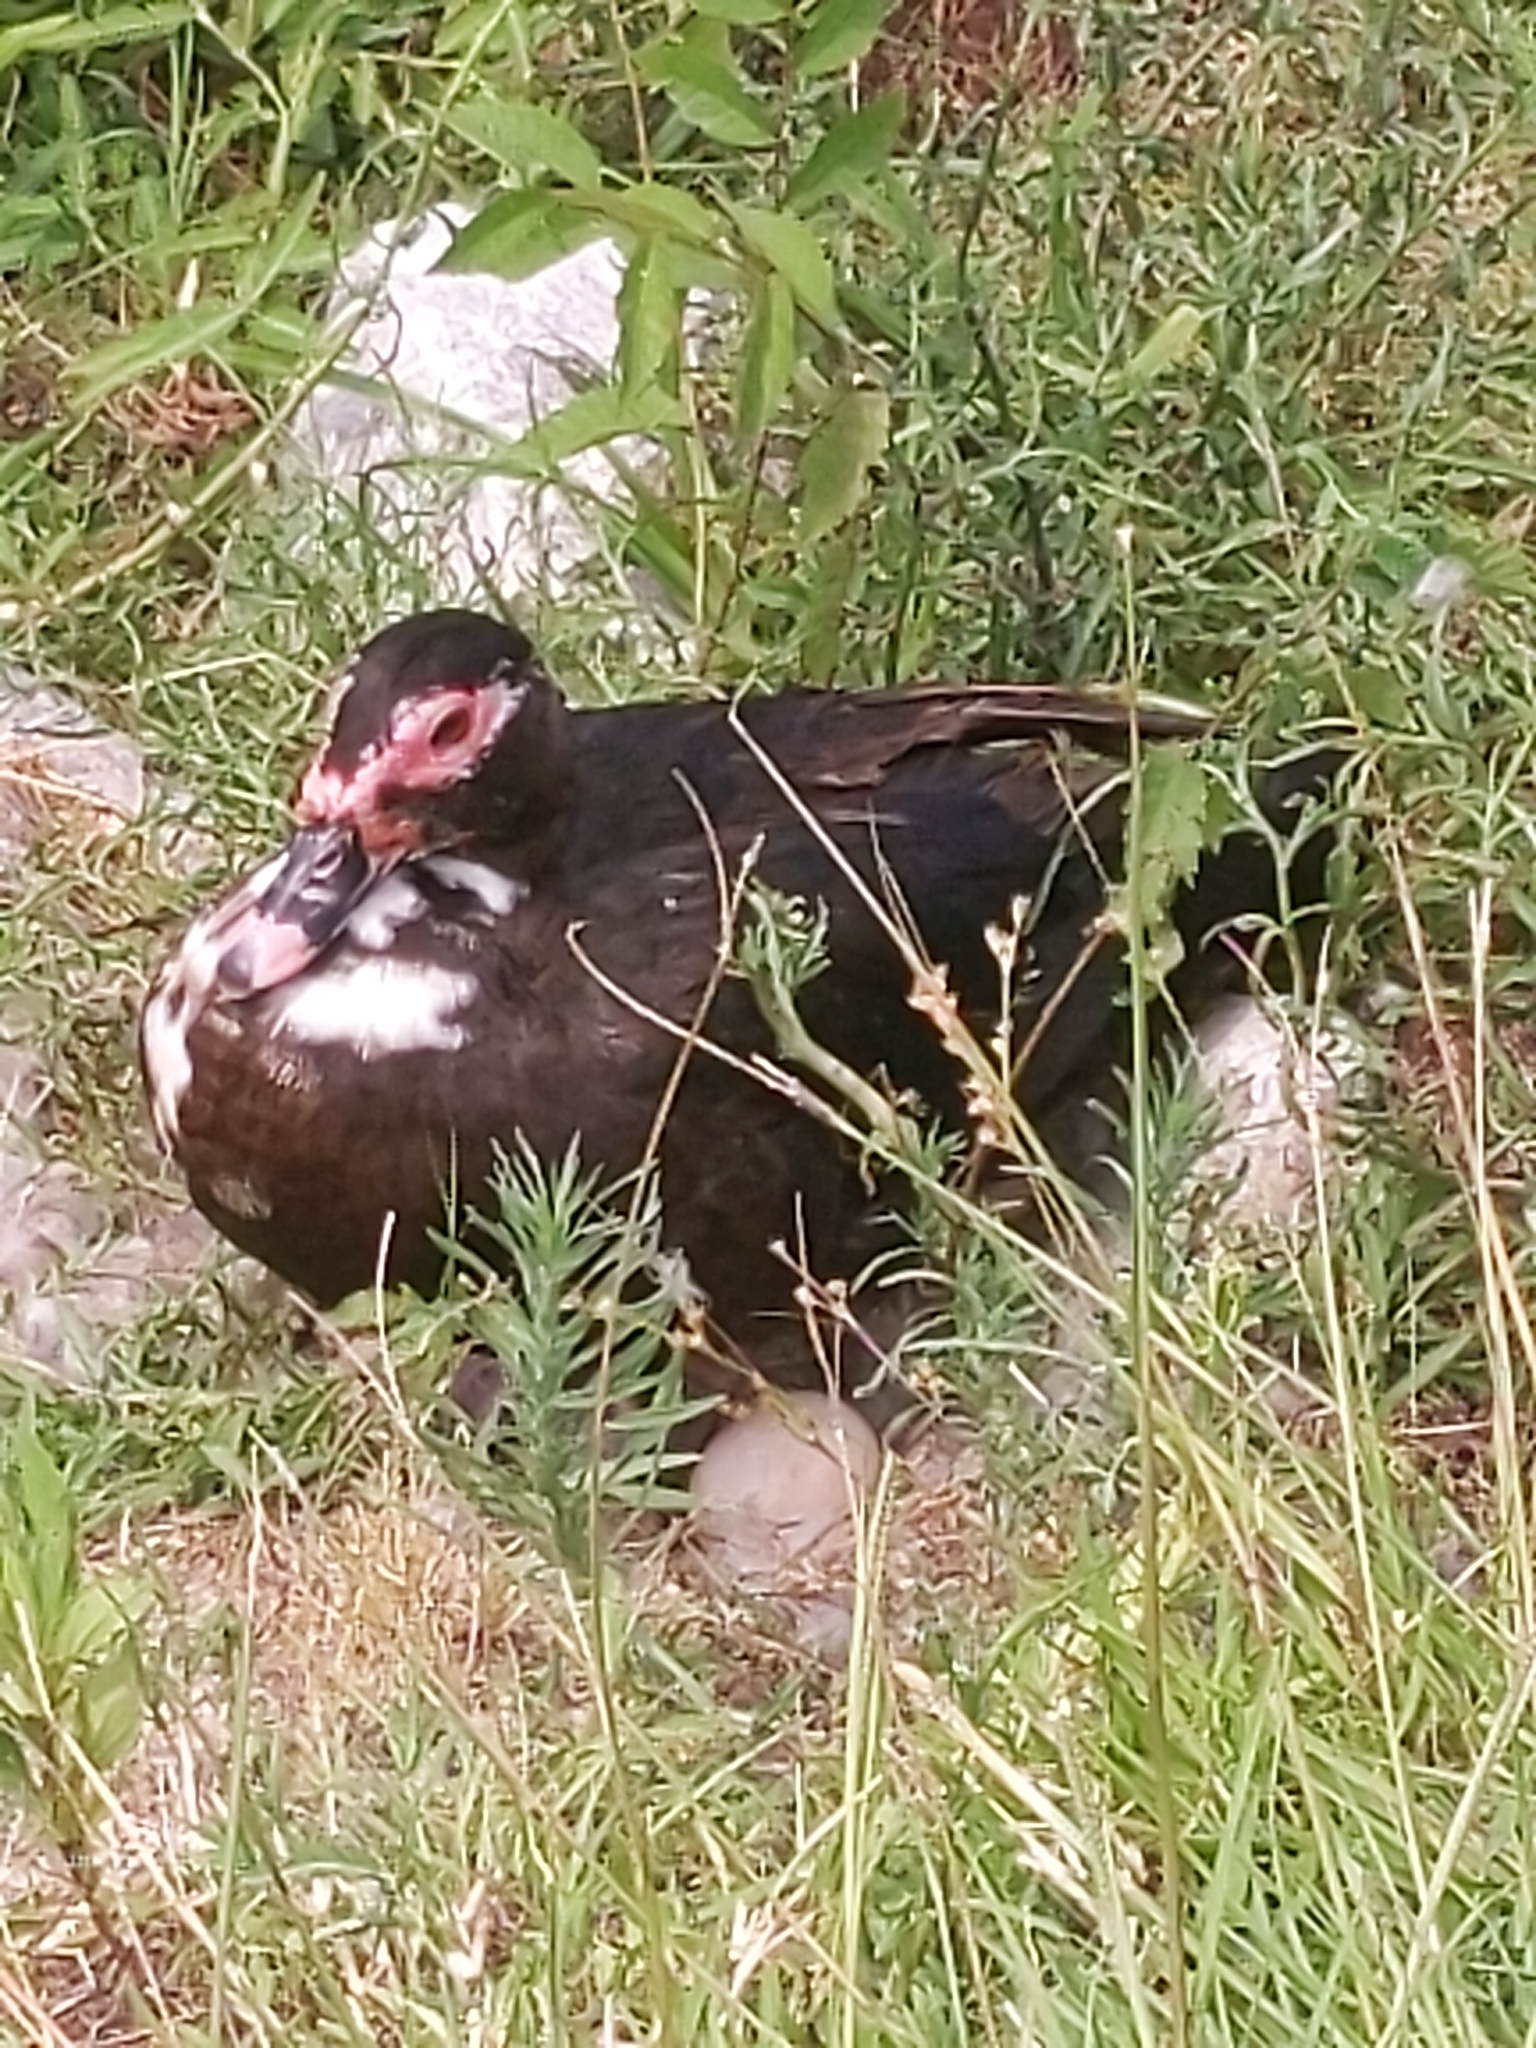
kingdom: Animalia
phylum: Chordata
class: Aves
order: Anseriformes
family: Anatidae
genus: Cairina
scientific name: Cairina moschata
